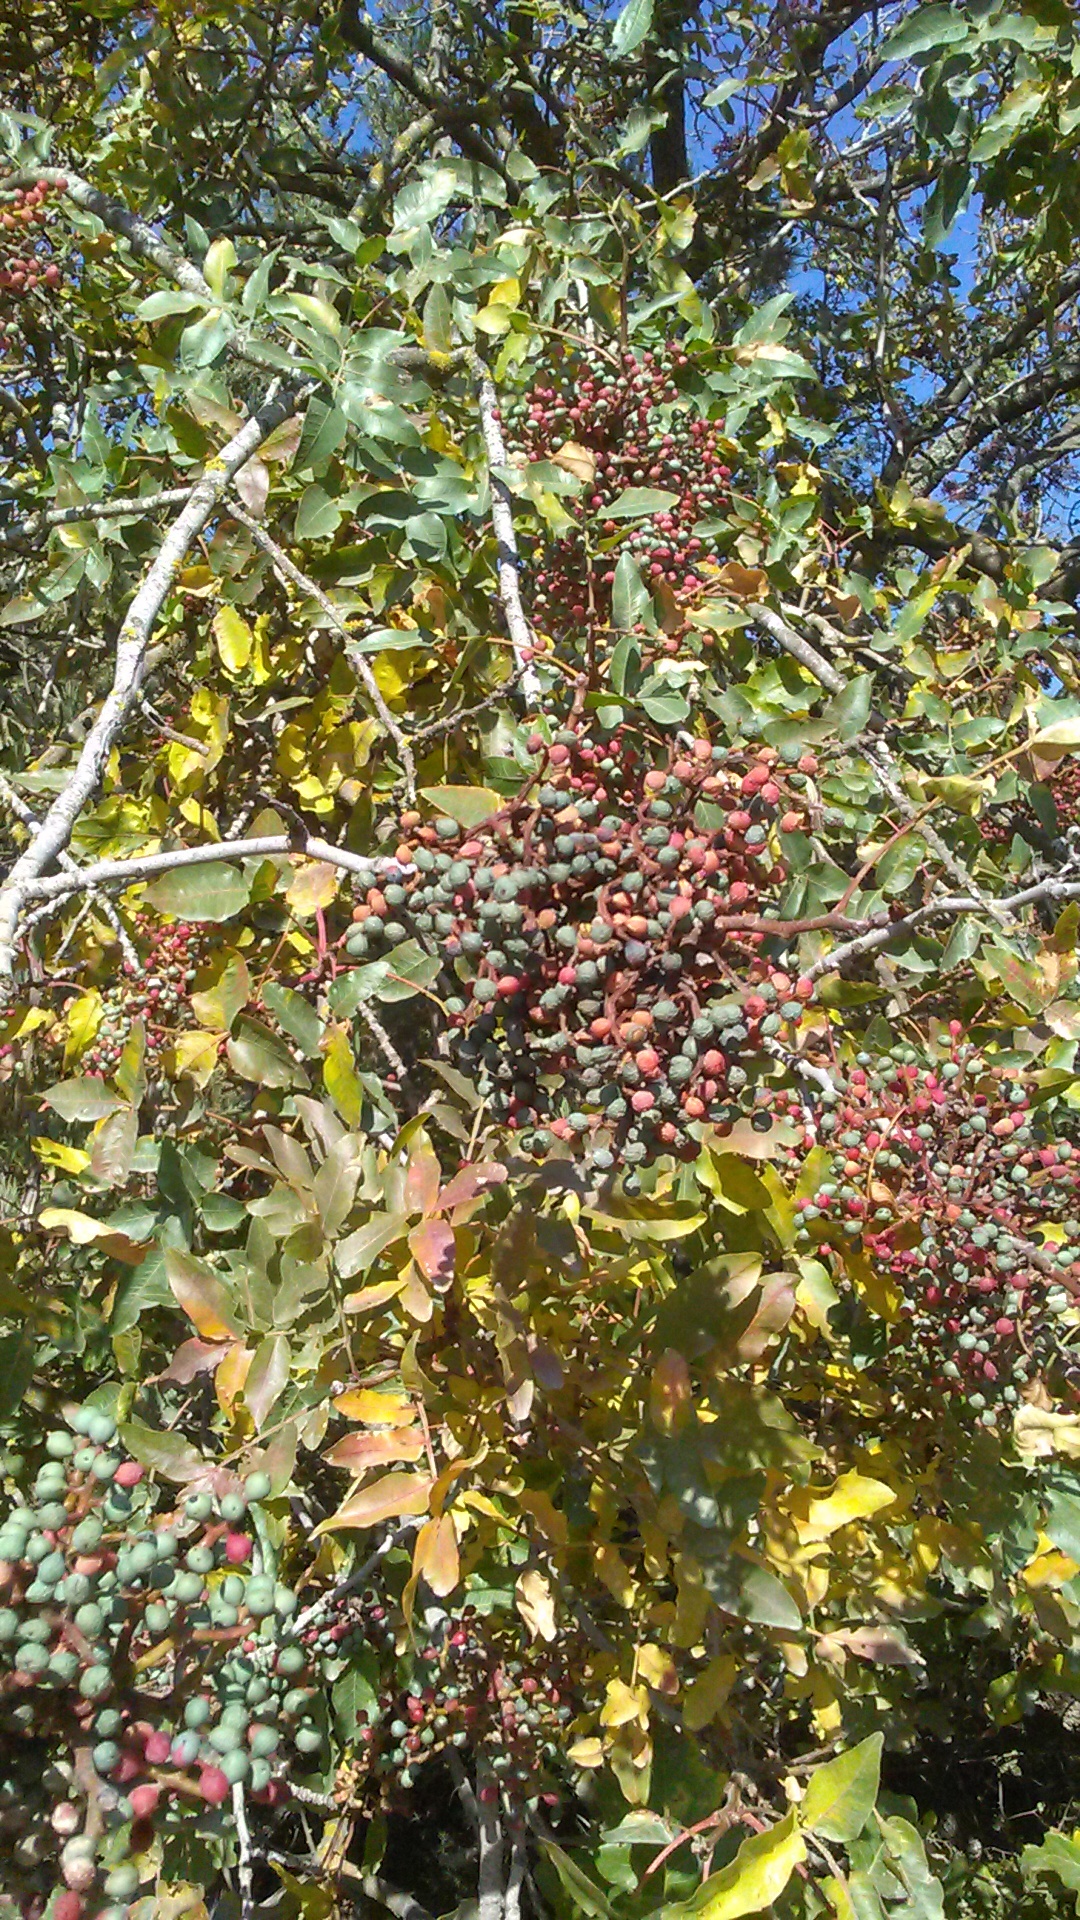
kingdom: Plantae
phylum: Tracheophyta
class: Magnoliopsida
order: Sapindales
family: Anacardiaceae
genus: Pistacia
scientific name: Pistacia atlantica
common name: Mt. atlas mastic tree
